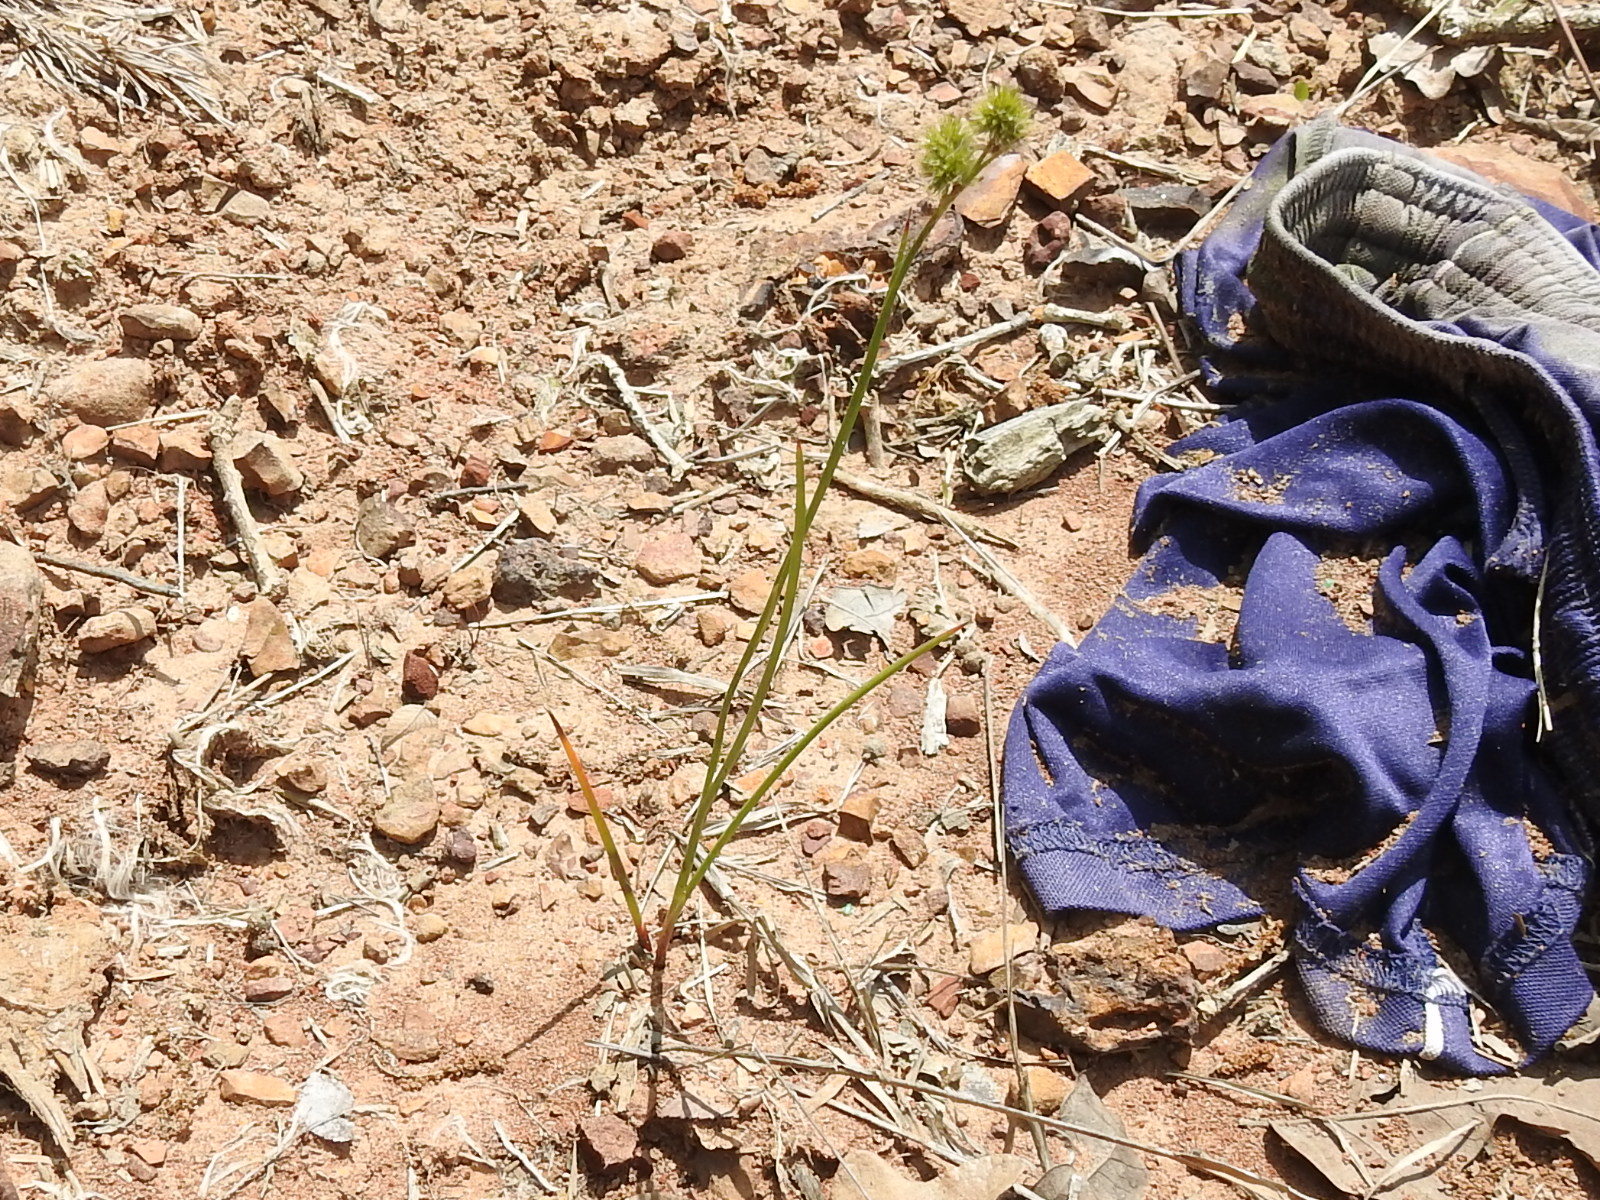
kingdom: Plantae
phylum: Tracheophyta
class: Liliopsida
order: Poales
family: Juncaceae
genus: Juncus
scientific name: Juncus torreyi
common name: Torrey's rush
